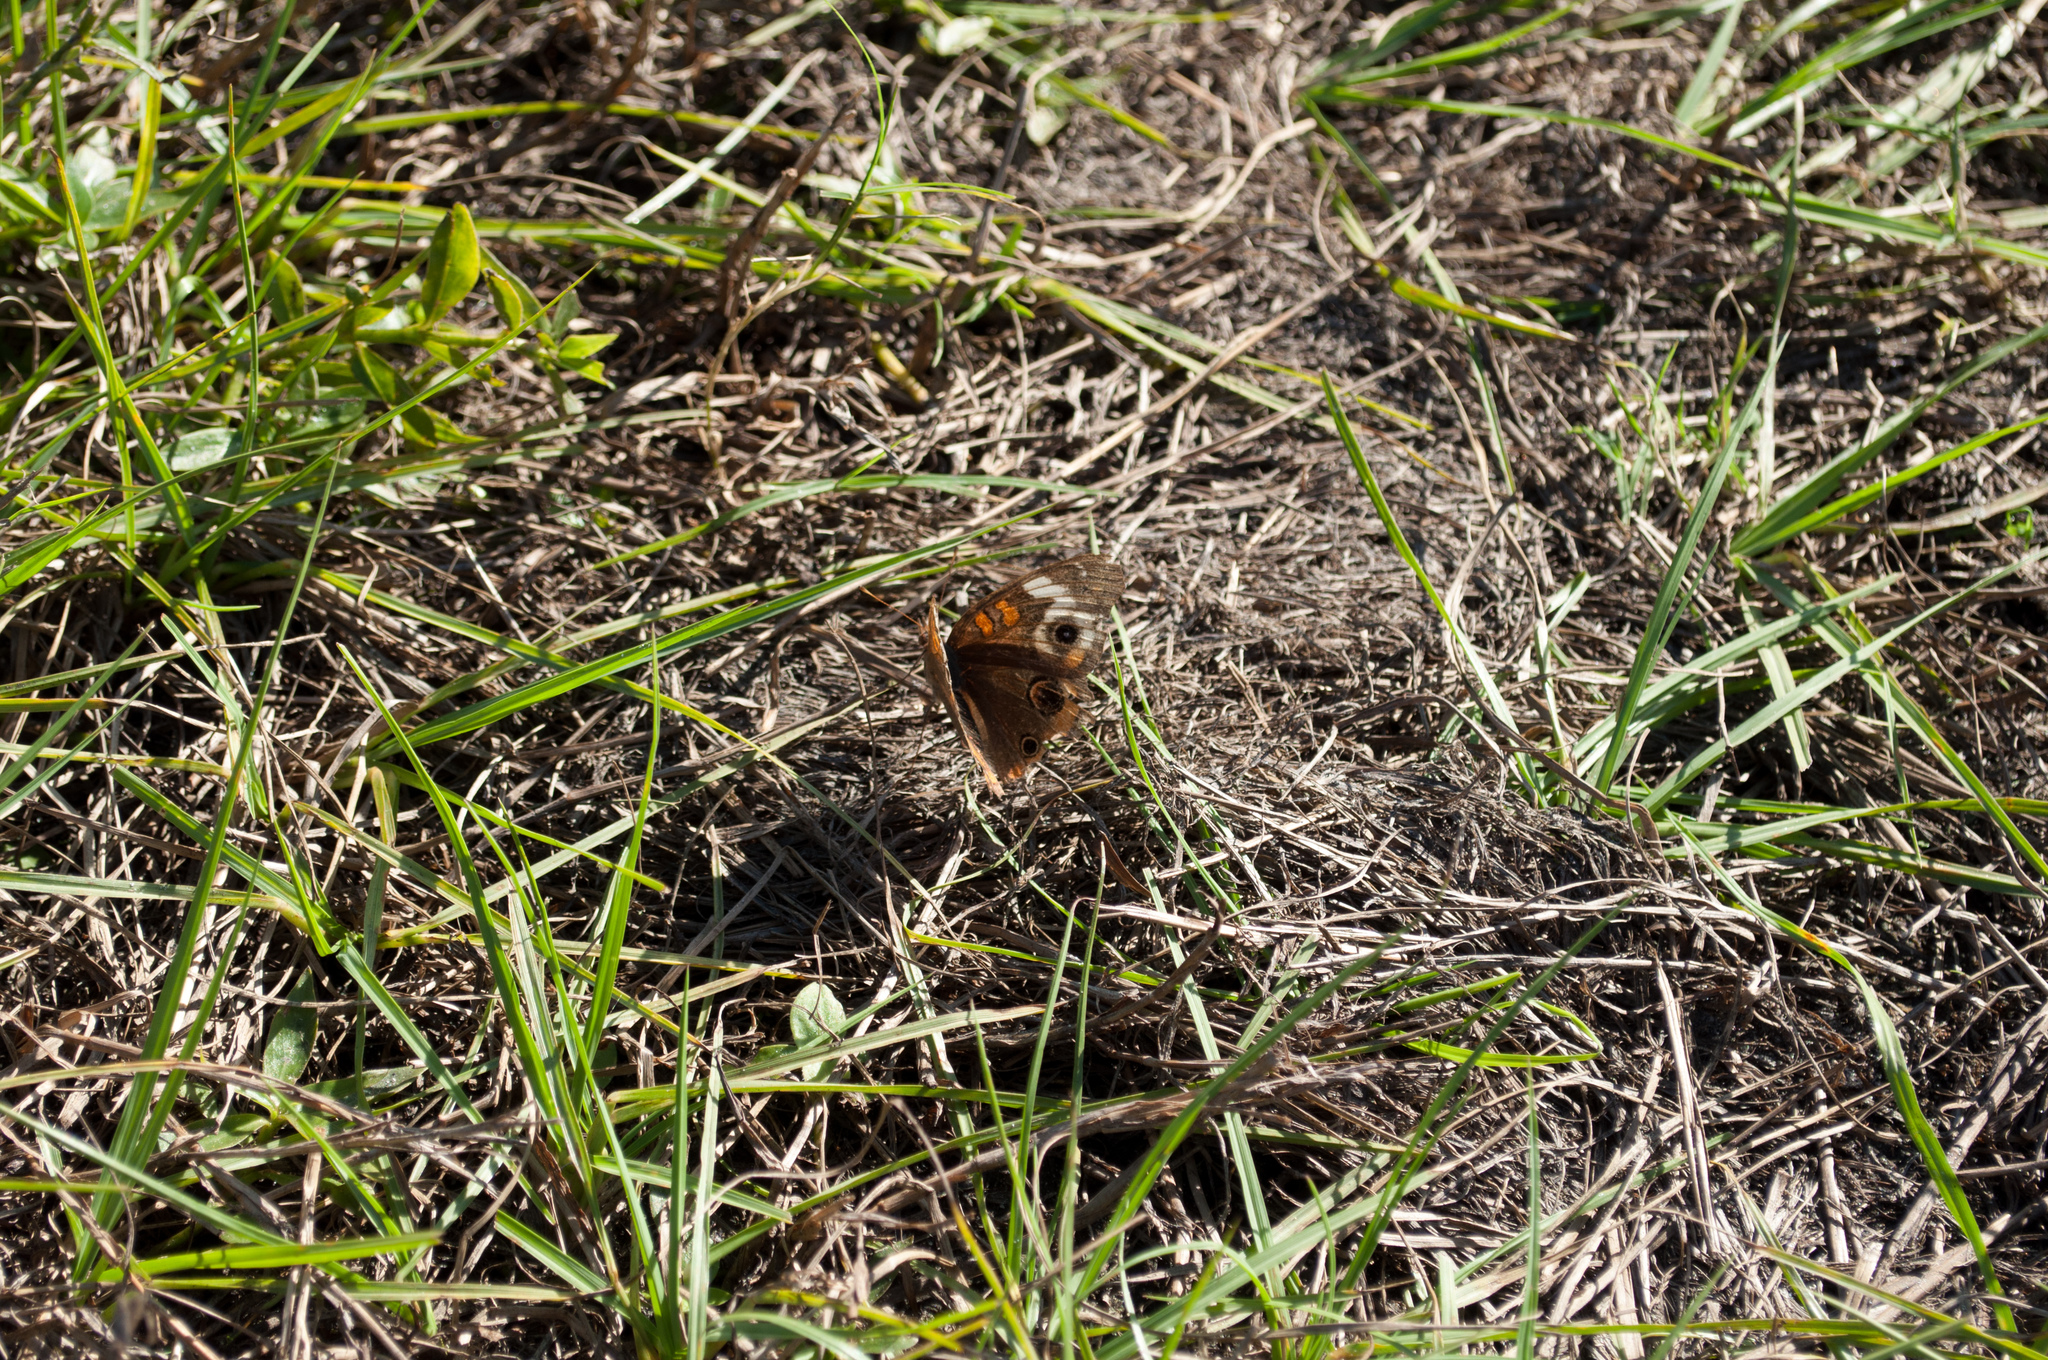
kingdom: Animalia
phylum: Arthropoda
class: Insecta
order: Lepidoptera
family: Nymphalidae
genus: Junonia
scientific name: Junonia coenia
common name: Common buckeye
